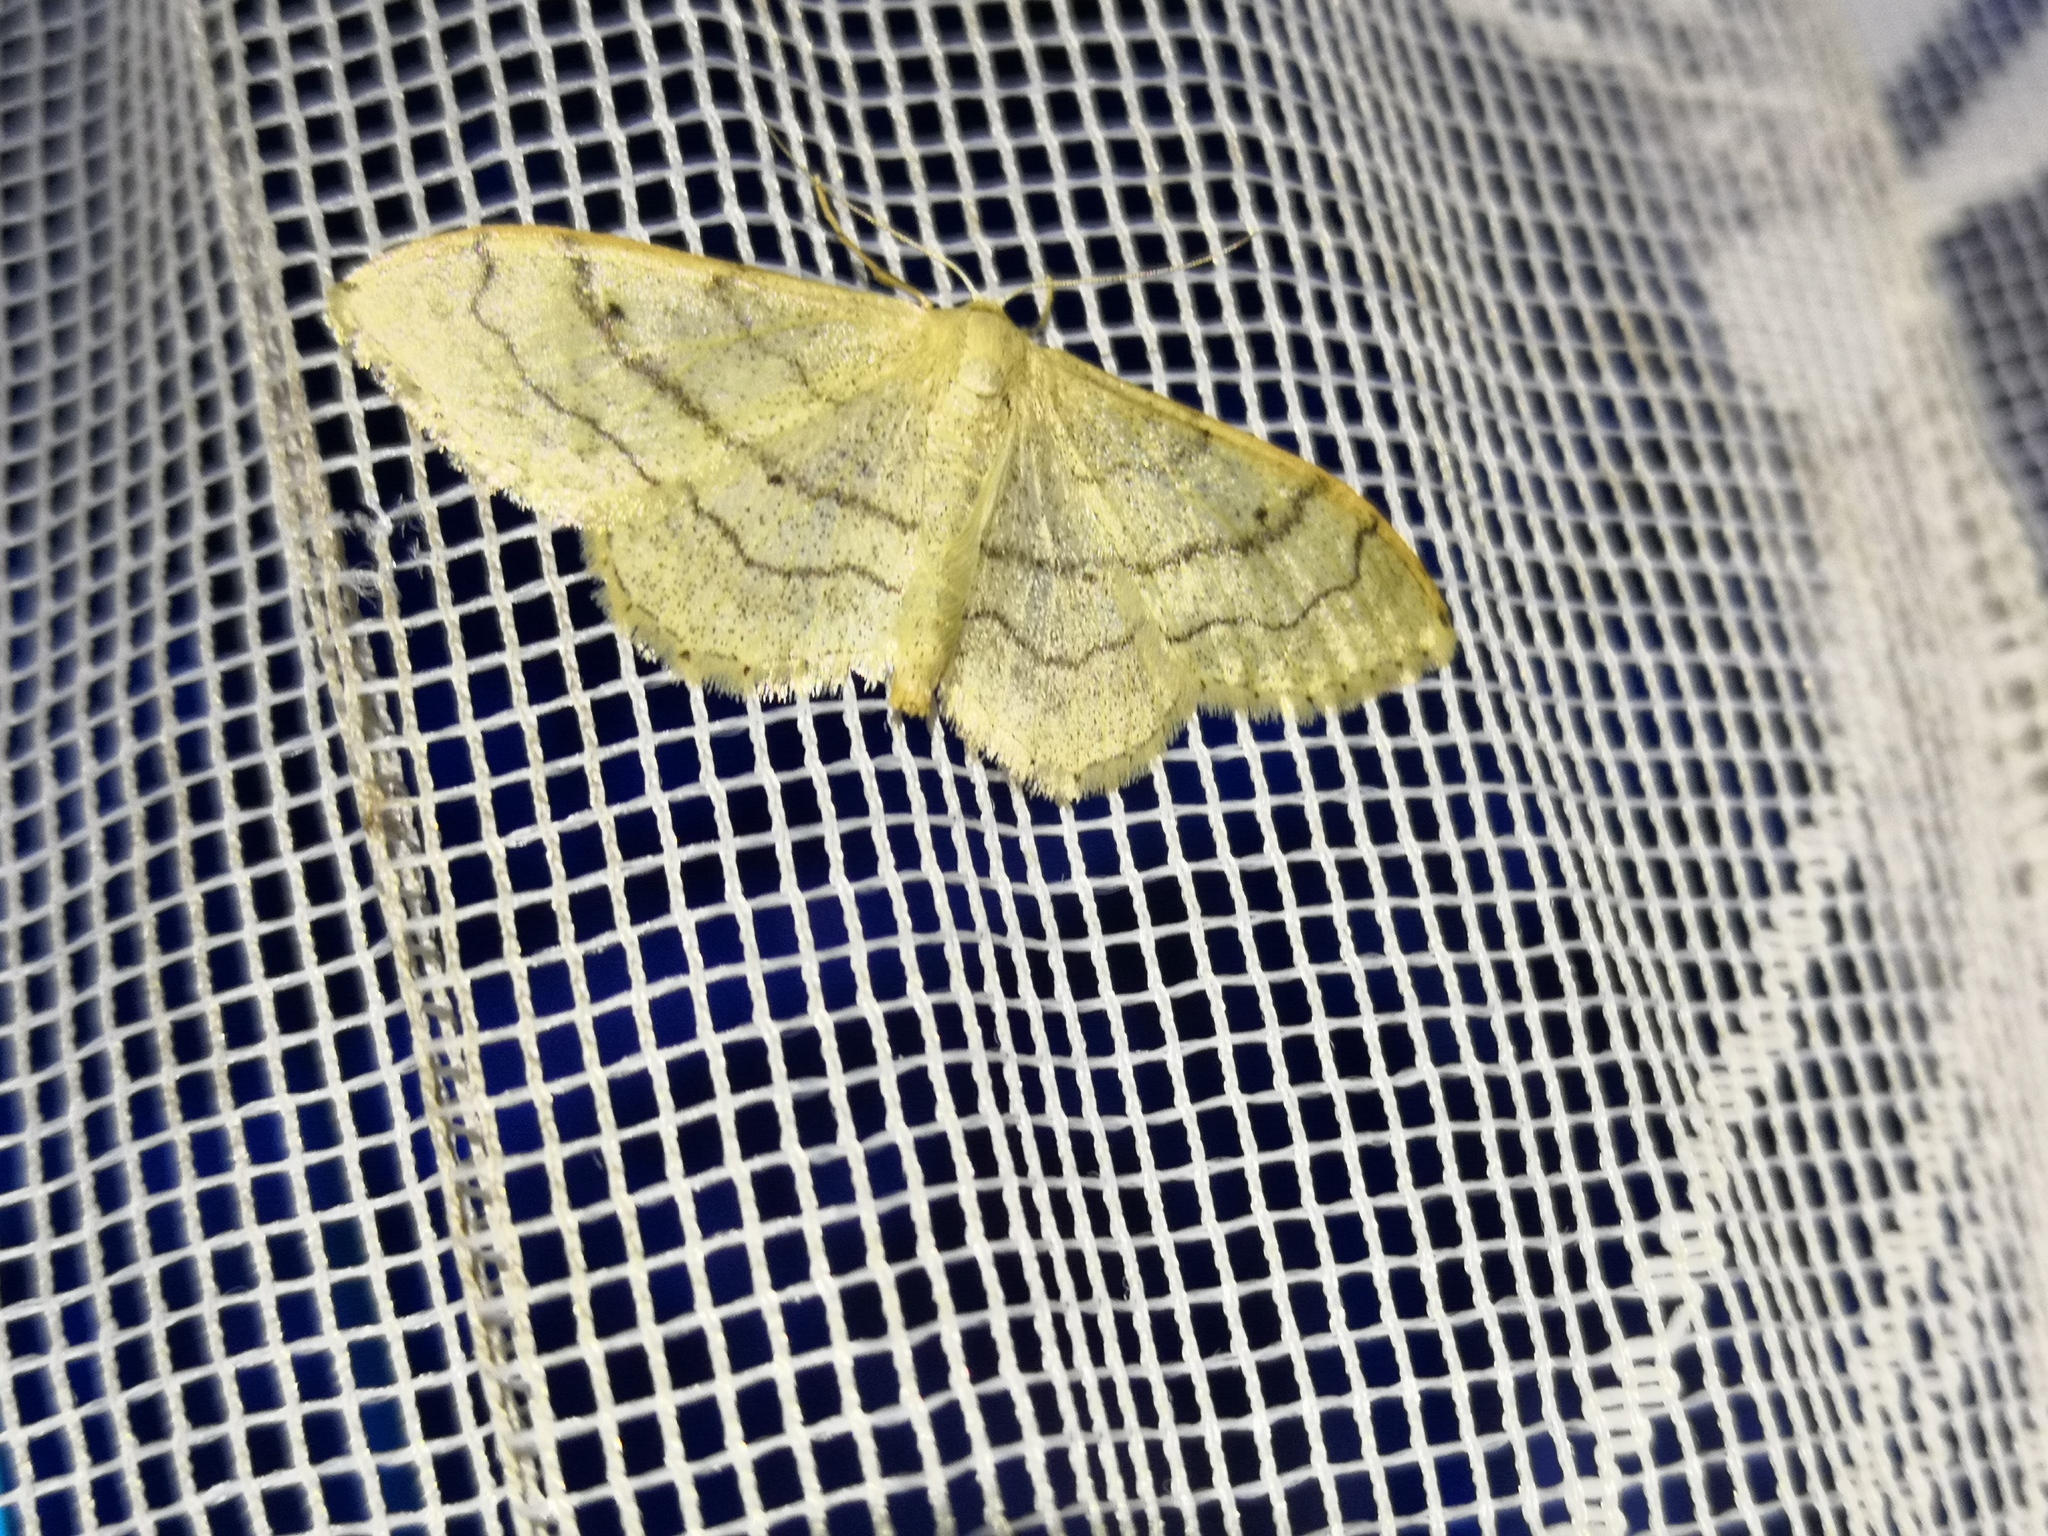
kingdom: Animalia
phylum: Arthropoda
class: Insecta
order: Lepidoptera
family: Geometridae
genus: Idaea
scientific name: Idaea aversata
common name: Riband wave
